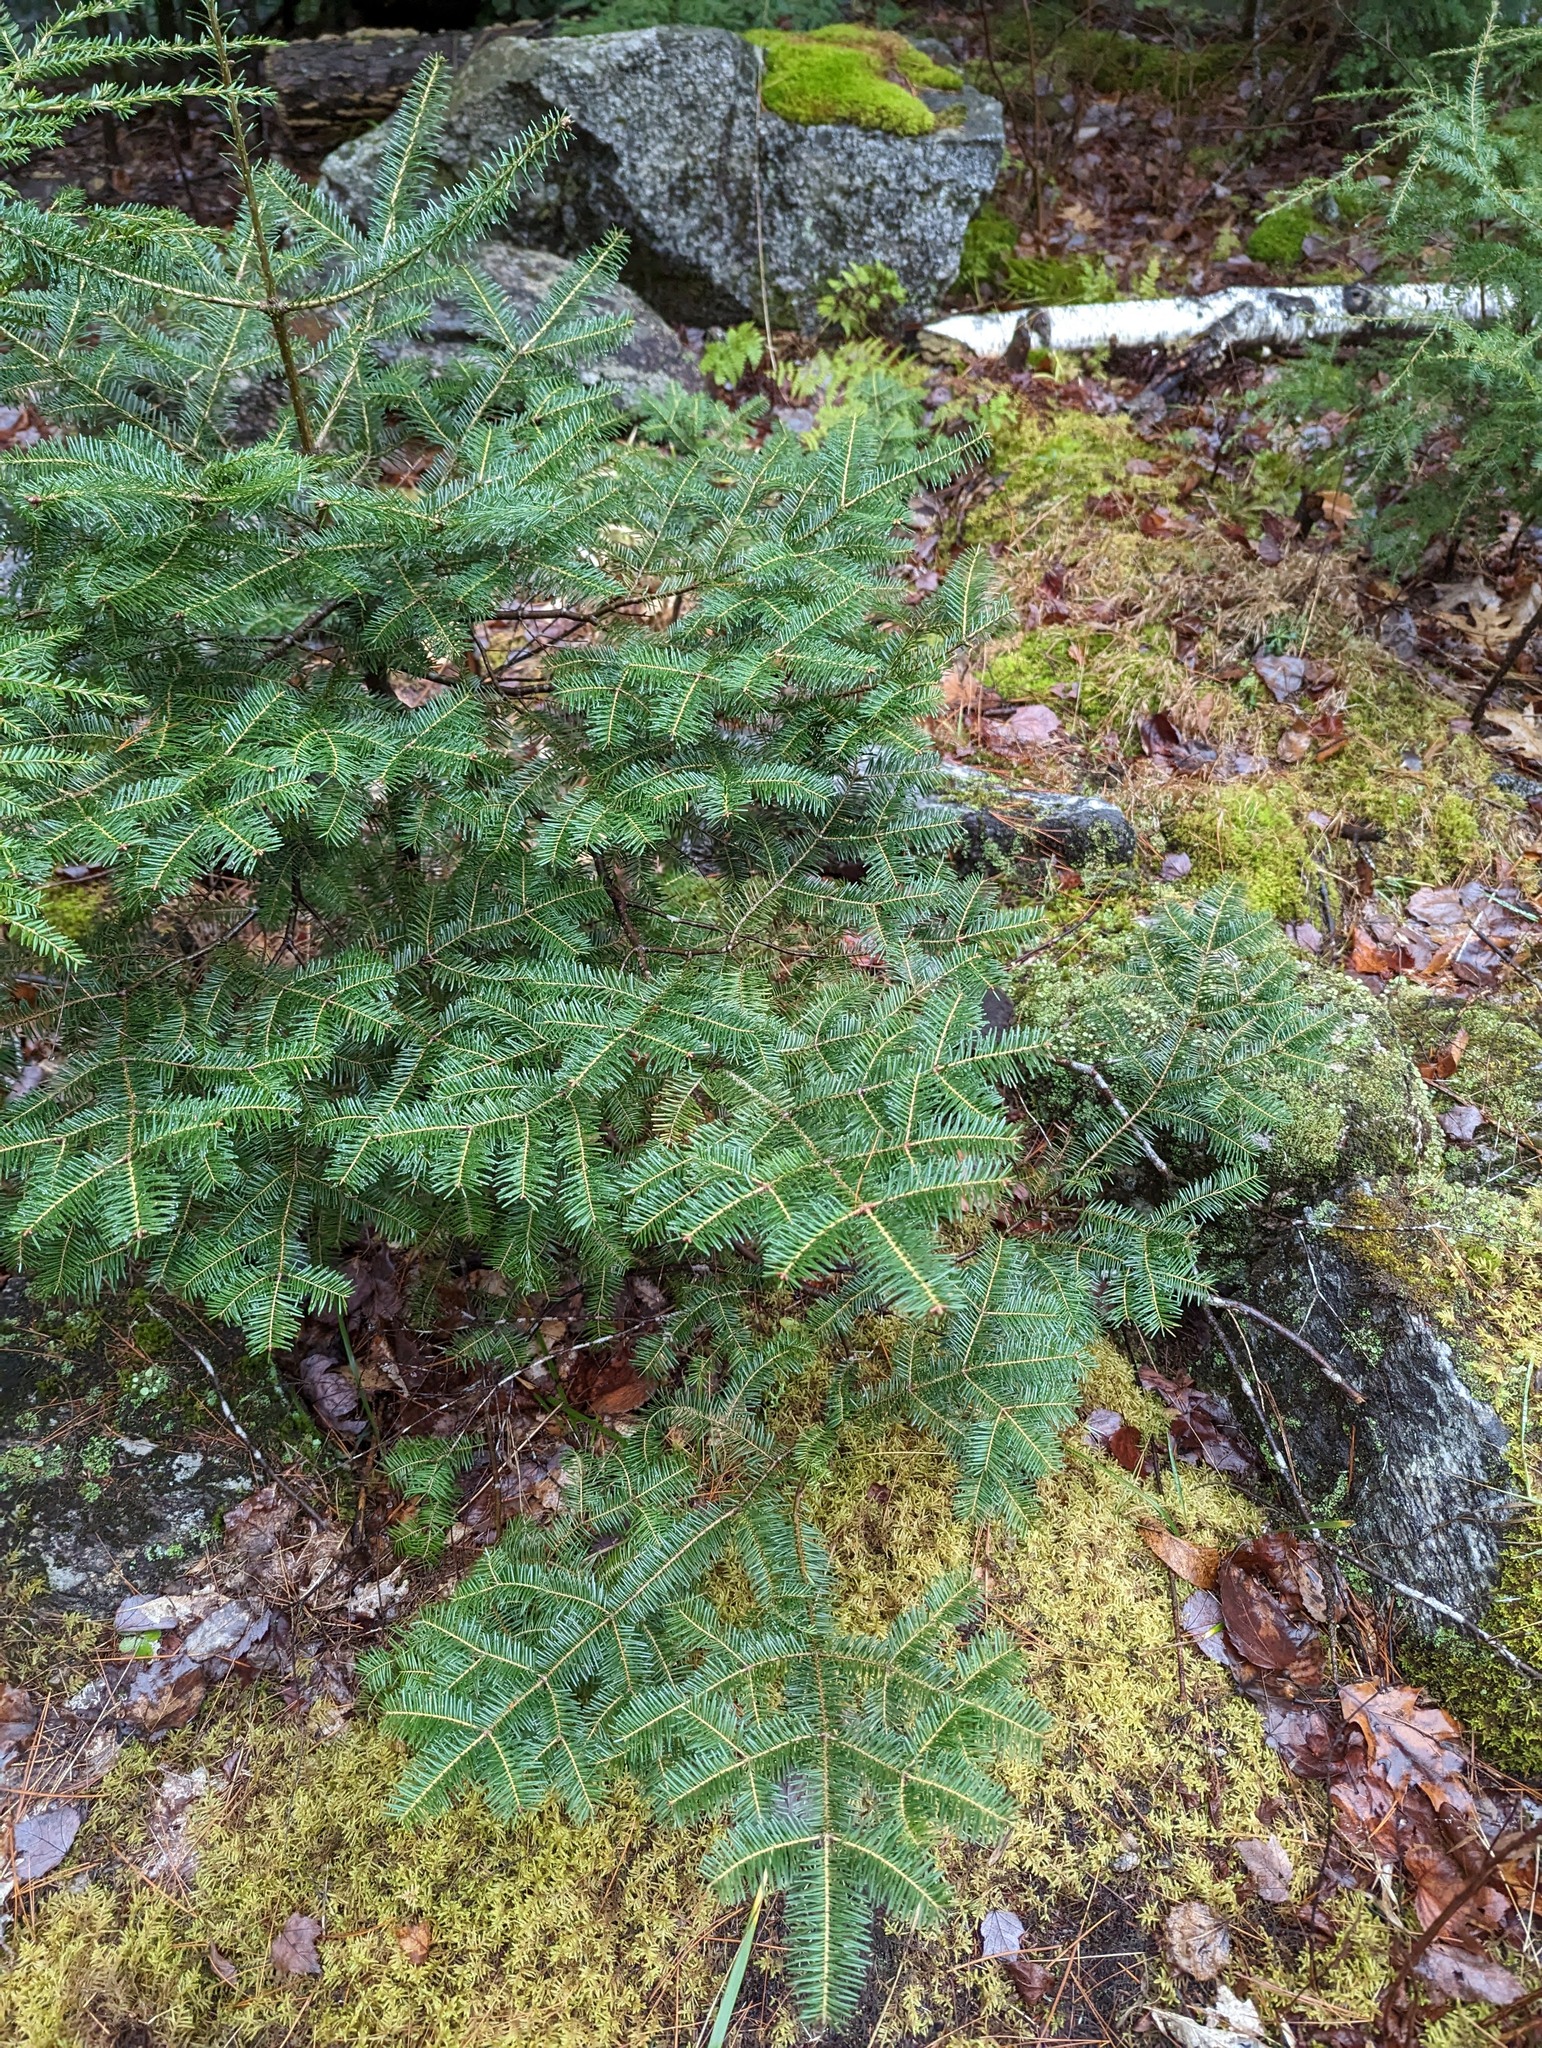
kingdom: Plantae
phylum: Tracheophyta
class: Pinopsida
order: Pinales
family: Pinaceae
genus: Abies
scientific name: Abies balsamea
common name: Balsam fir
